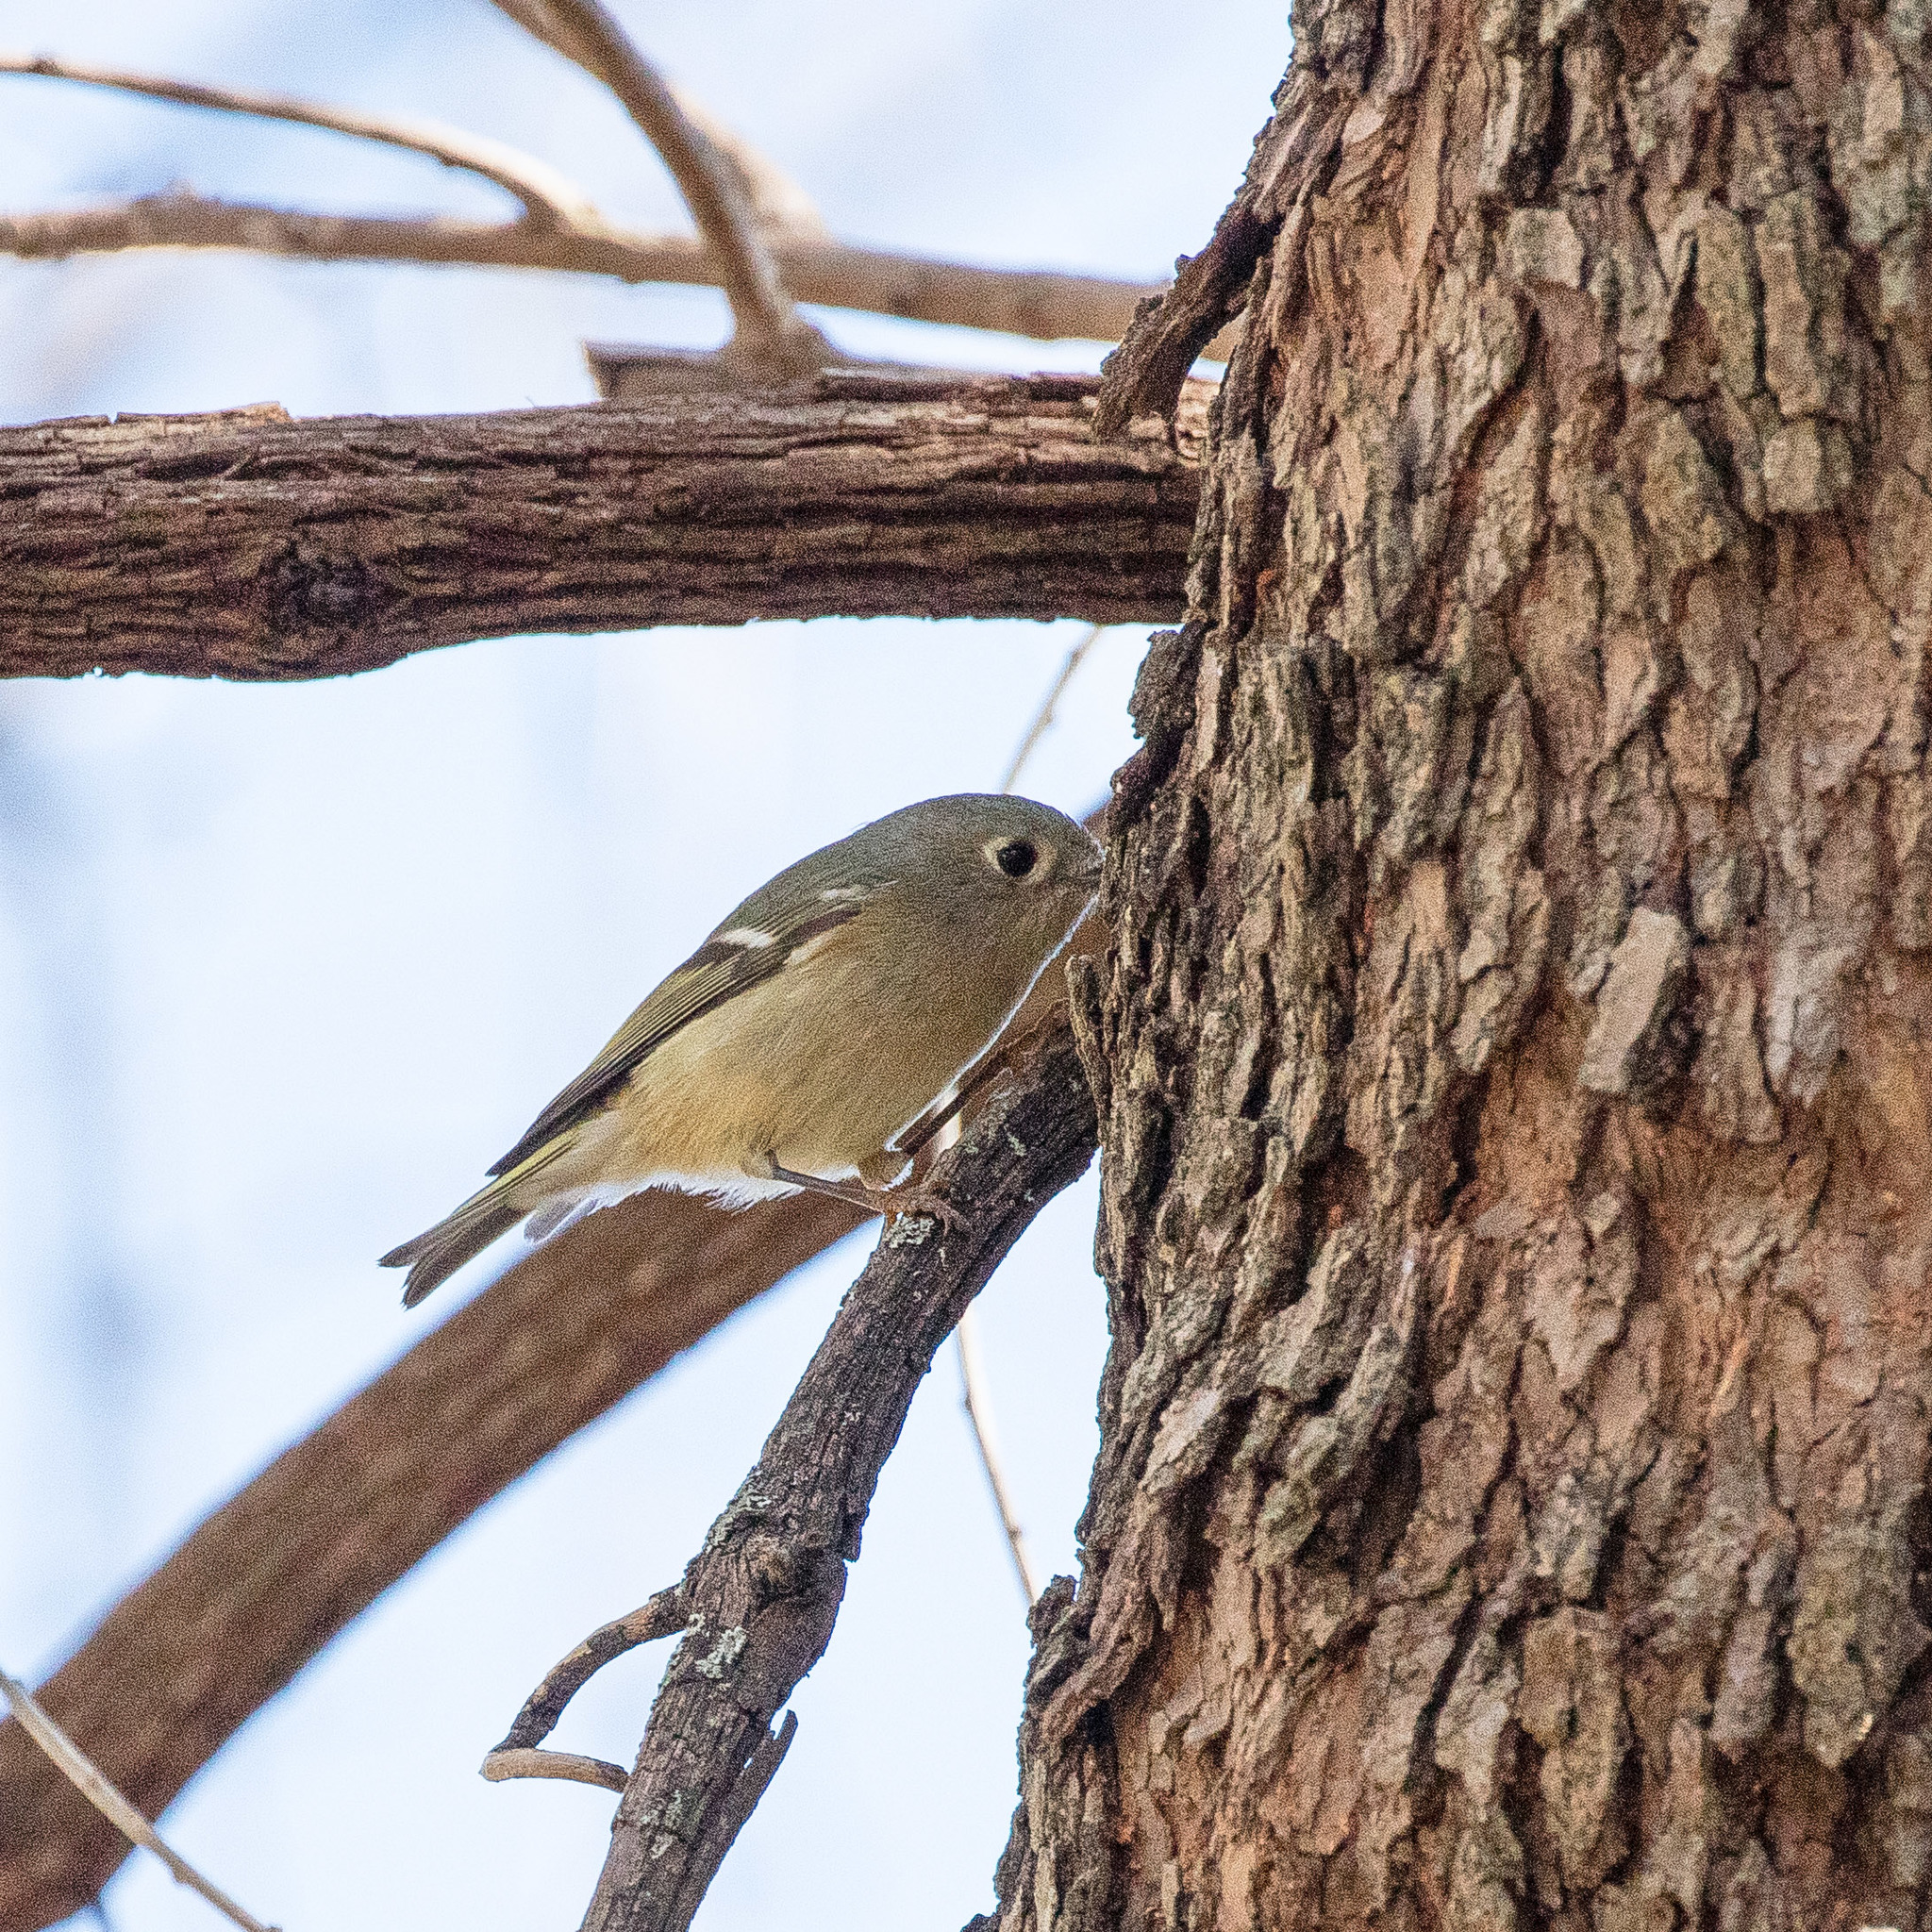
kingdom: Animalia
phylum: Chordata
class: Aves
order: Passeriformes
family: Regulidae
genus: Regulus
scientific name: Regulus calendula
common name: Ruby-crowned kinglet
